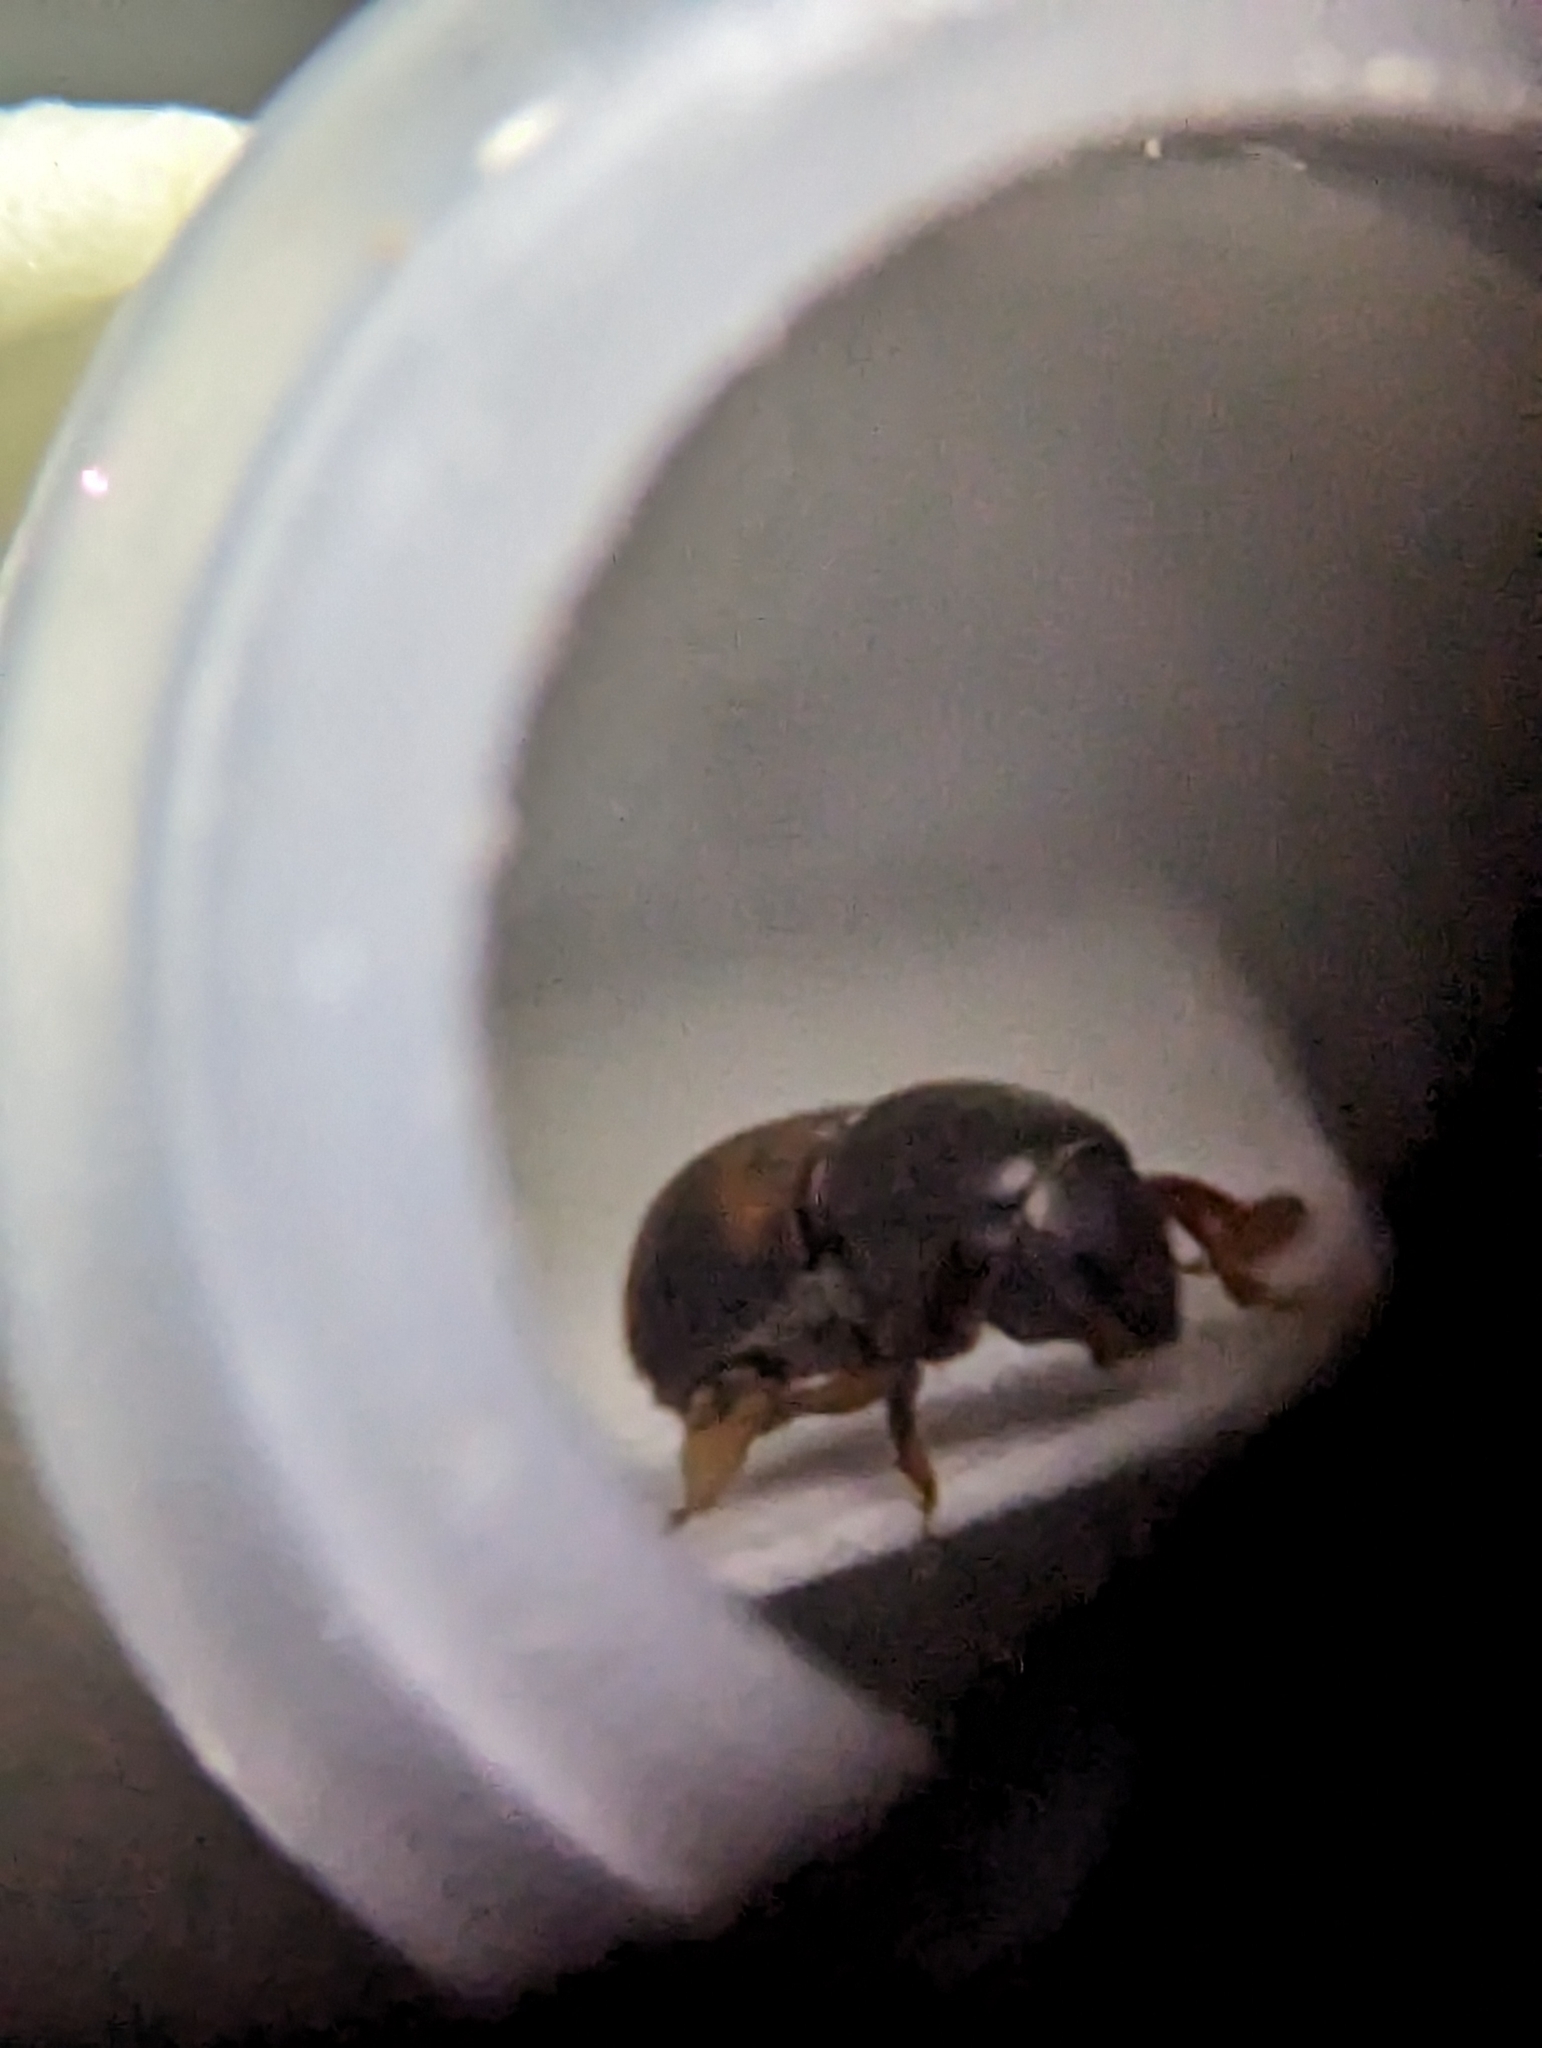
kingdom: Animalia
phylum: Arthropoda
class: Insecta
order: Coleoptera
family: Curculionidae
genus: Scolytoplatypus
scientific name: Scolytoplatypus fasciatus
